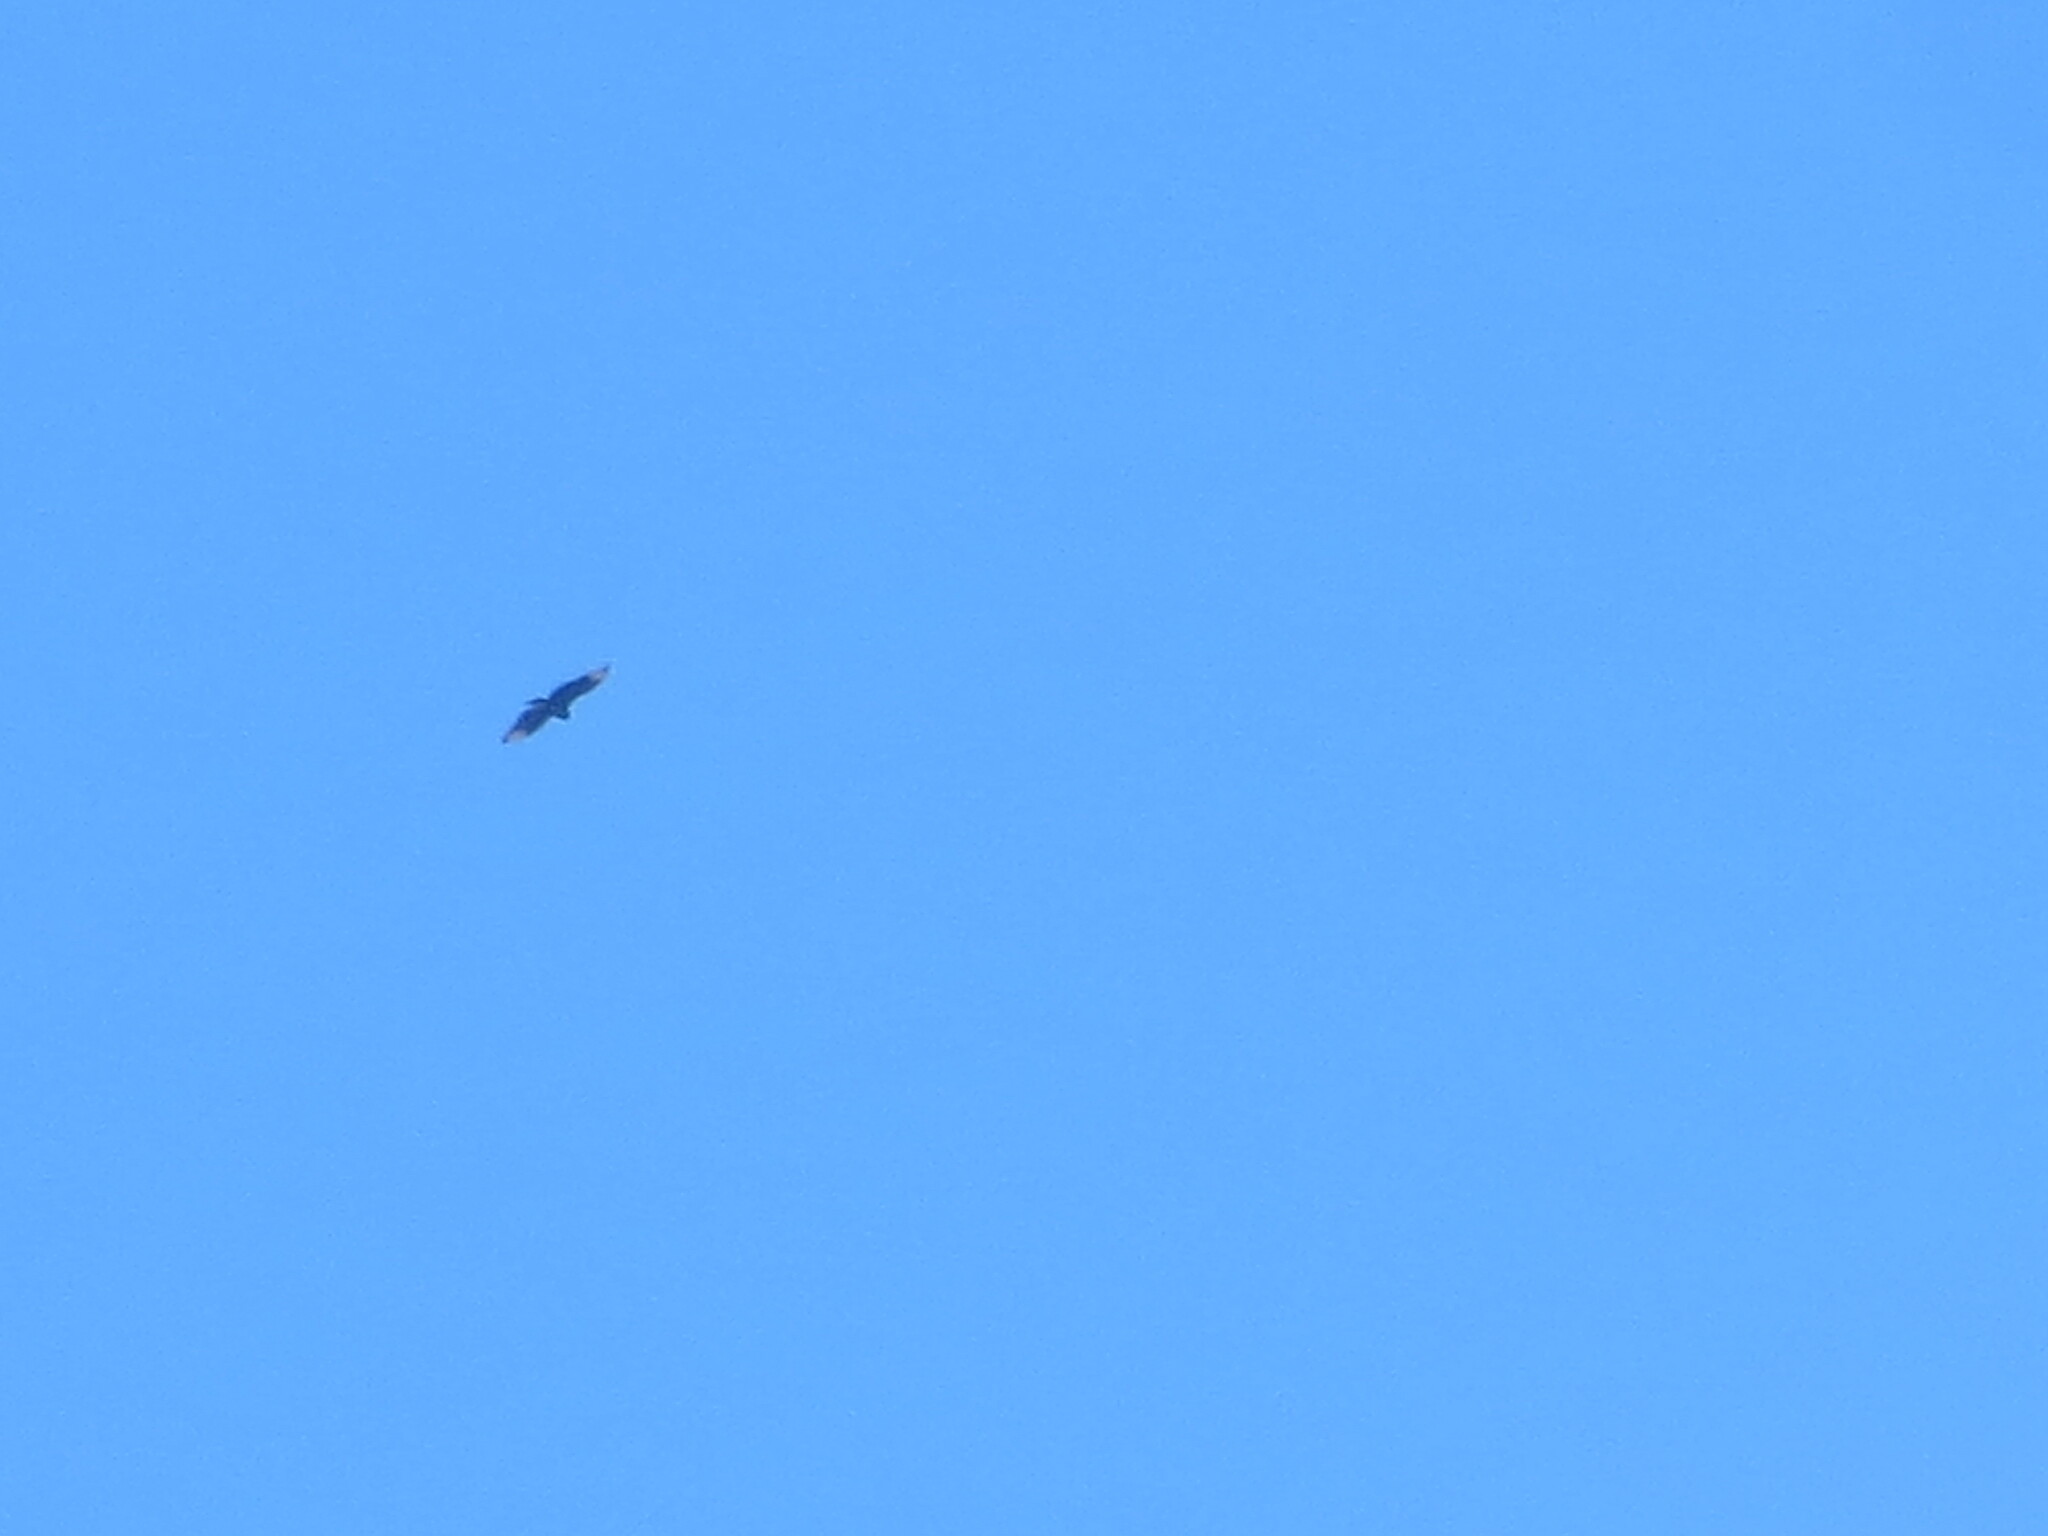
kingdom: Animalia
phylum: Chordata
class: Aves
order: Accipitriformes
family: Cathartidae
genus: Coragyps
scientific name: Coragyps atratus
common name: Black vulture
